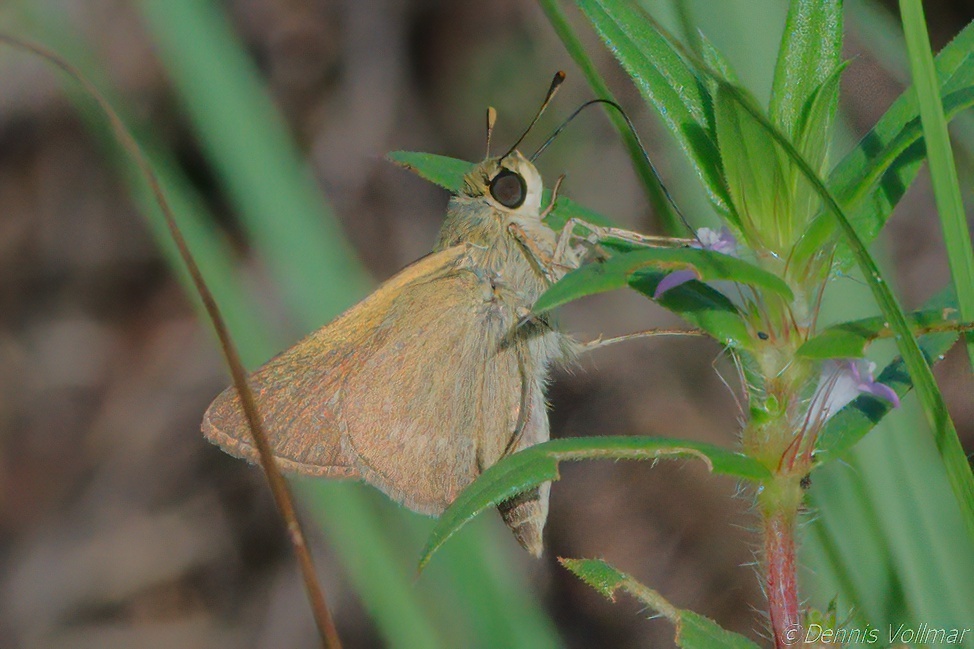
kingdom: Animalia
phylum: Arthropoda
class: Insecta
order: Lepidoptera
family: Hesperiidae
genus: Polites
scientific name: Polites themistocles
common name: Tawny-edged skipper
